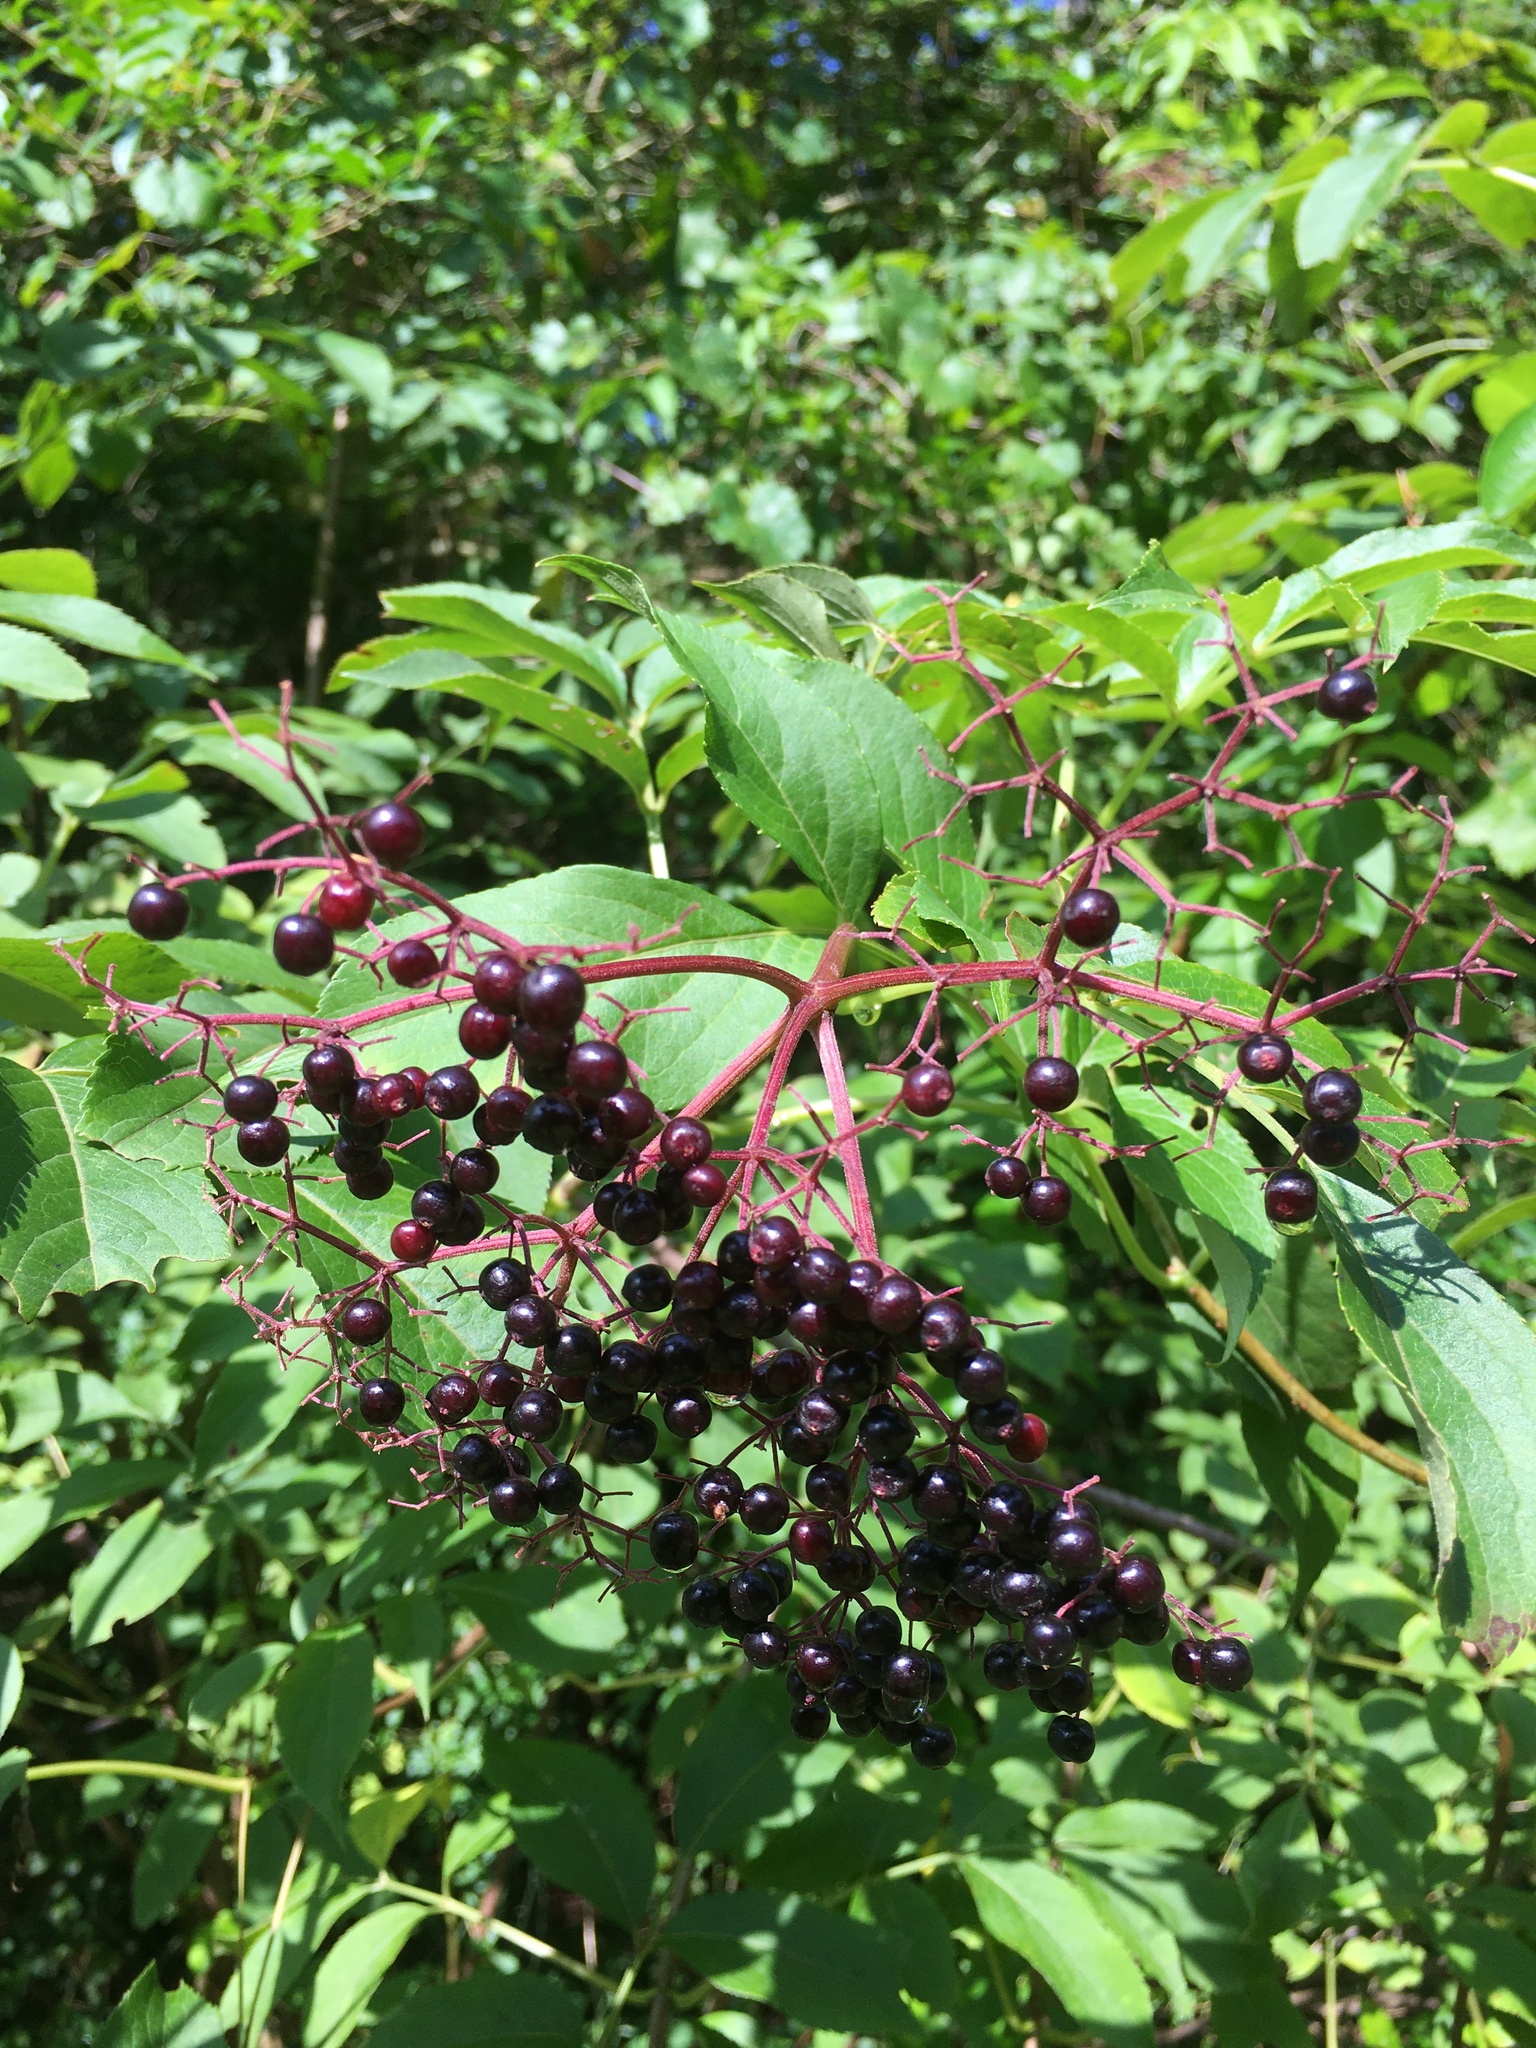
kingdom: Plantae
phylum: Tracheophyta
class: Magnoliopsida
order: Dipsacales
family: Viburnaceae
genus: Sambucus
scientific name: Sambucus canadensis
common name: American elder
